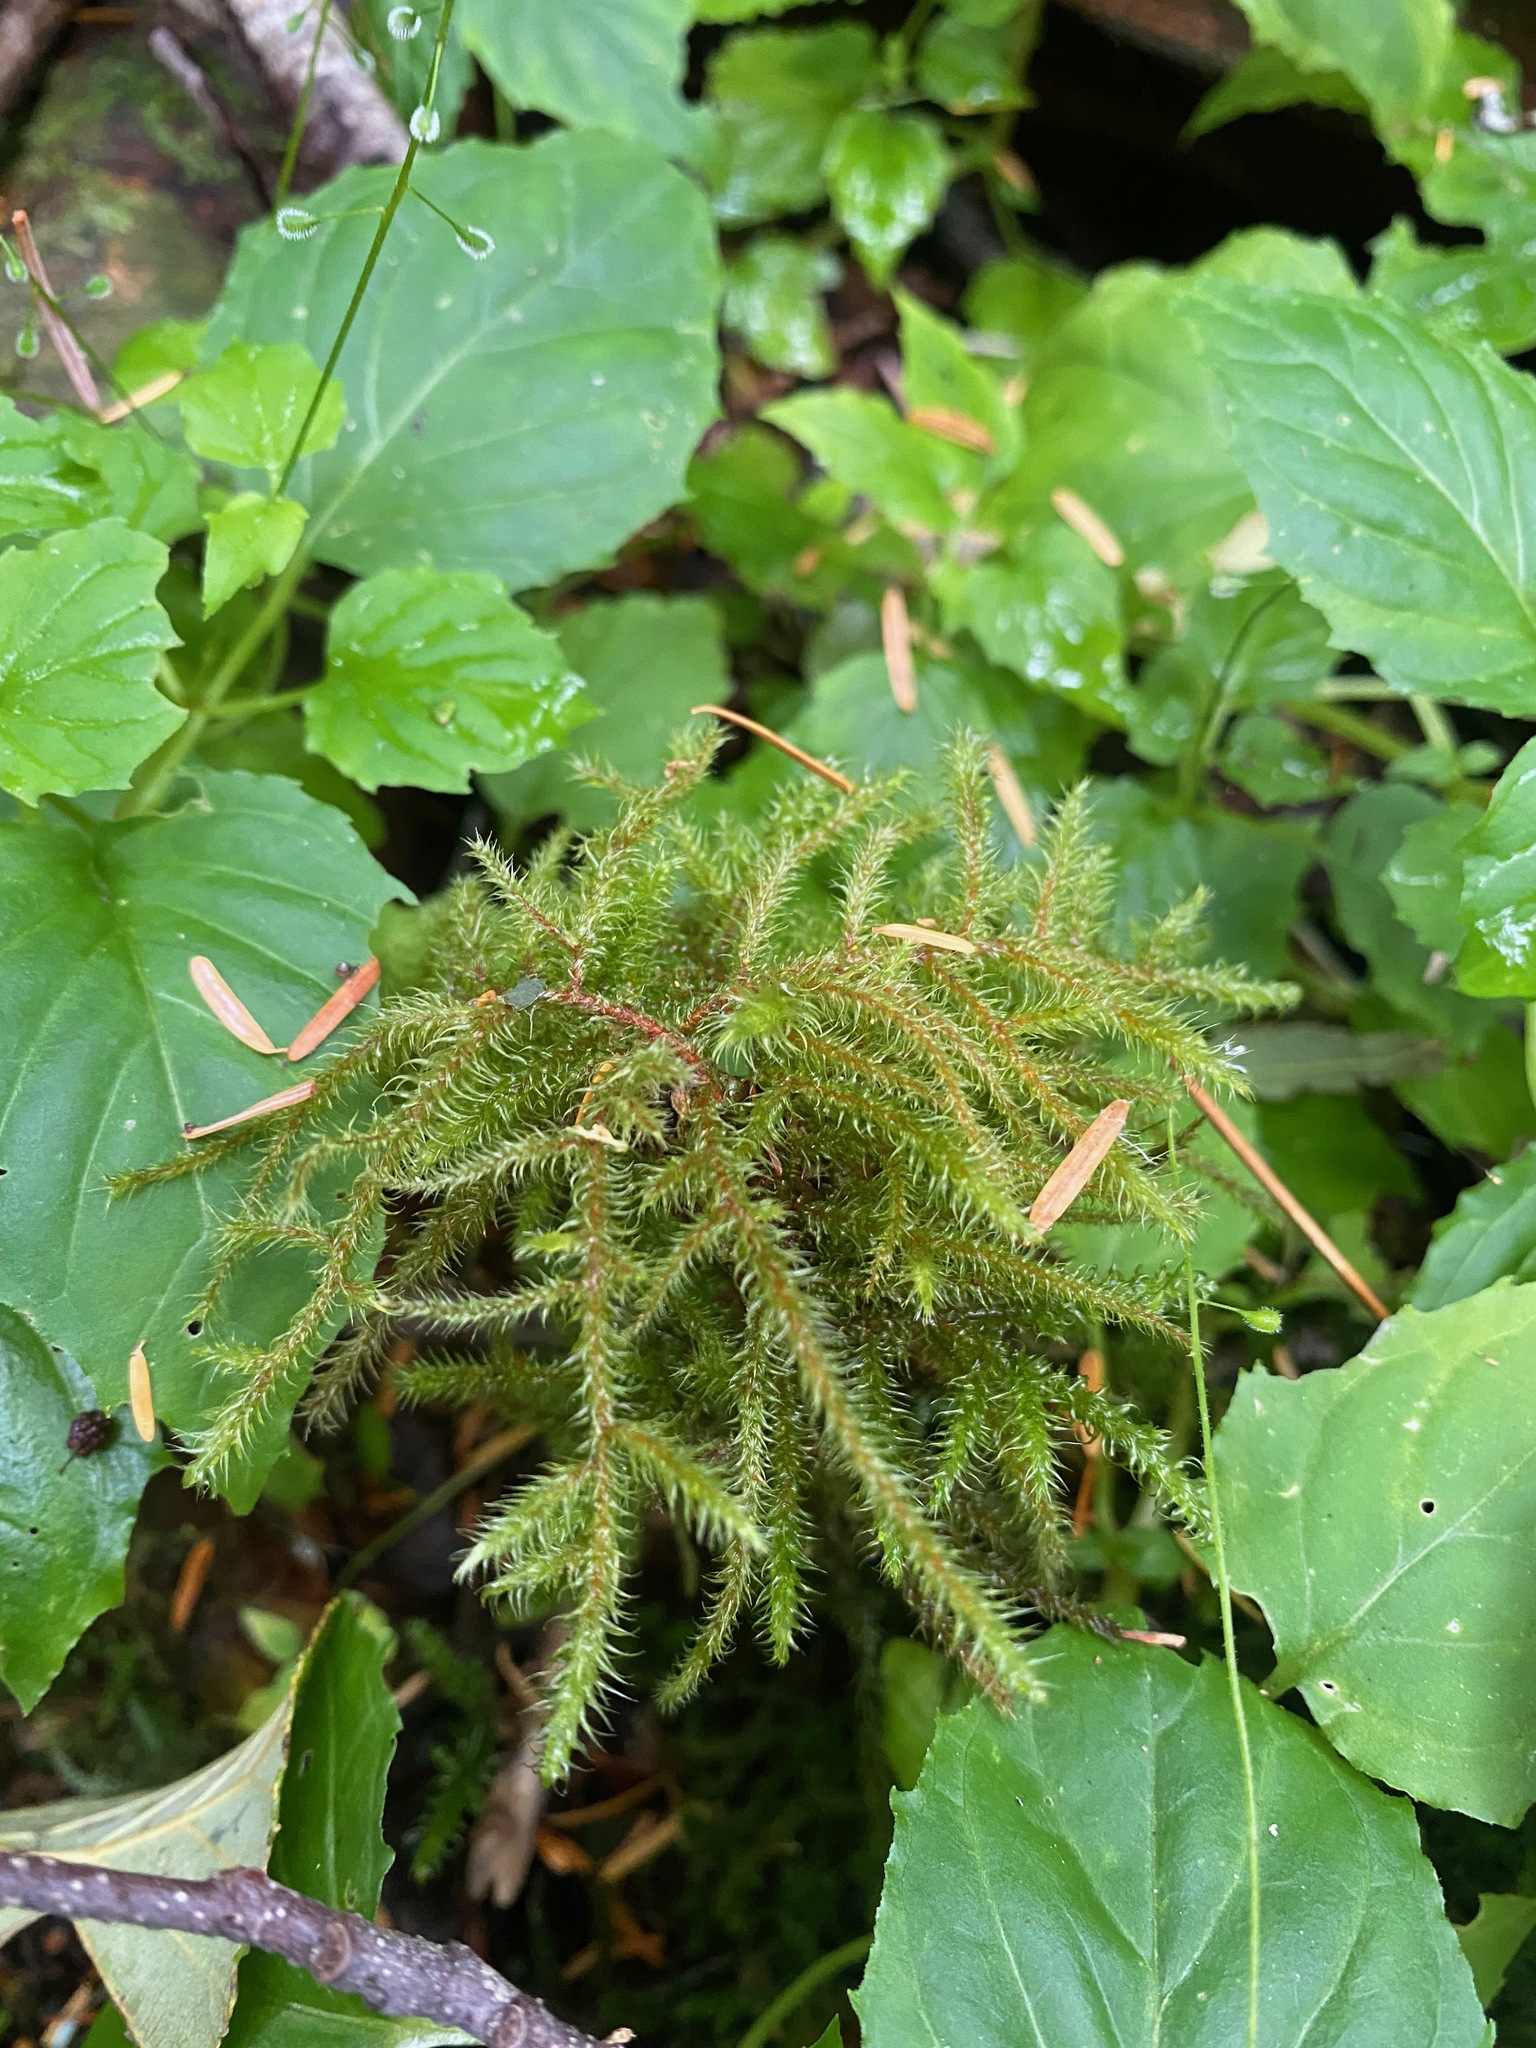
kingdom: Plantae
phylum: Bryophyta
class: Bryopsida
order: Hypnales
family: Hylocomiaceae
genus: Rhytidiadelphus
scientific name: Rhytidiadelphus loreus
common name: Lanky moss
